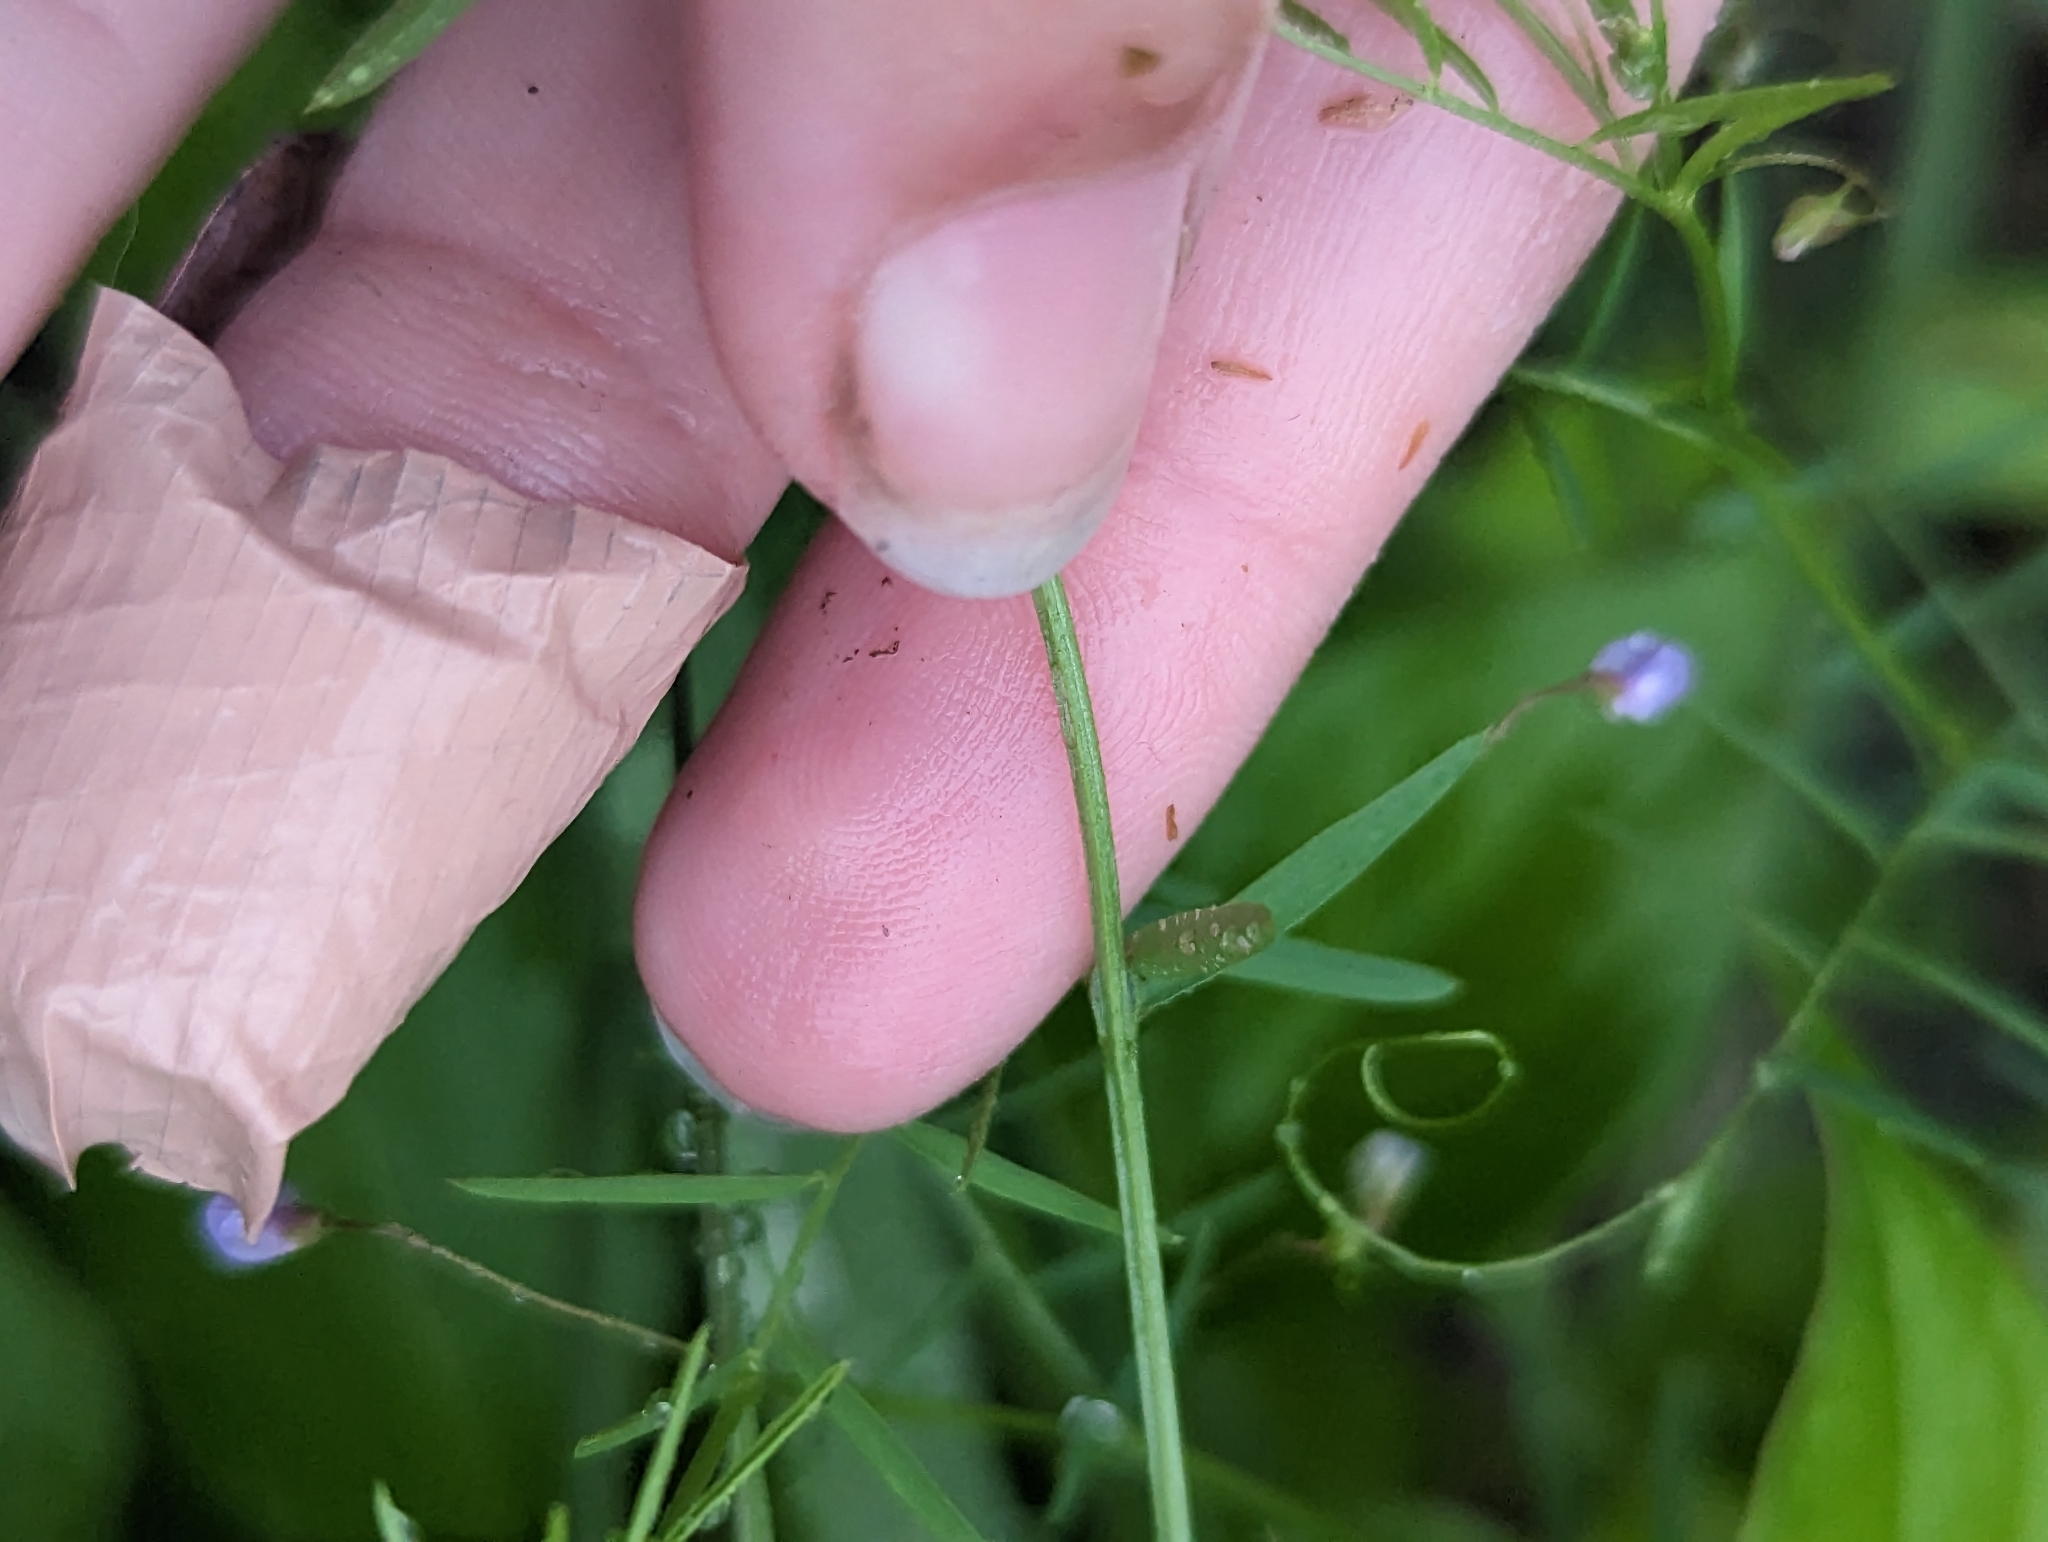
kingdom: Plantae
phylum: Tracheophyta
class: Magnoliopsida
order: Fabales
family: Fabaceae
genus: Vicia
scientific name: Vicia tetrasperma
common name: Smooth tare
